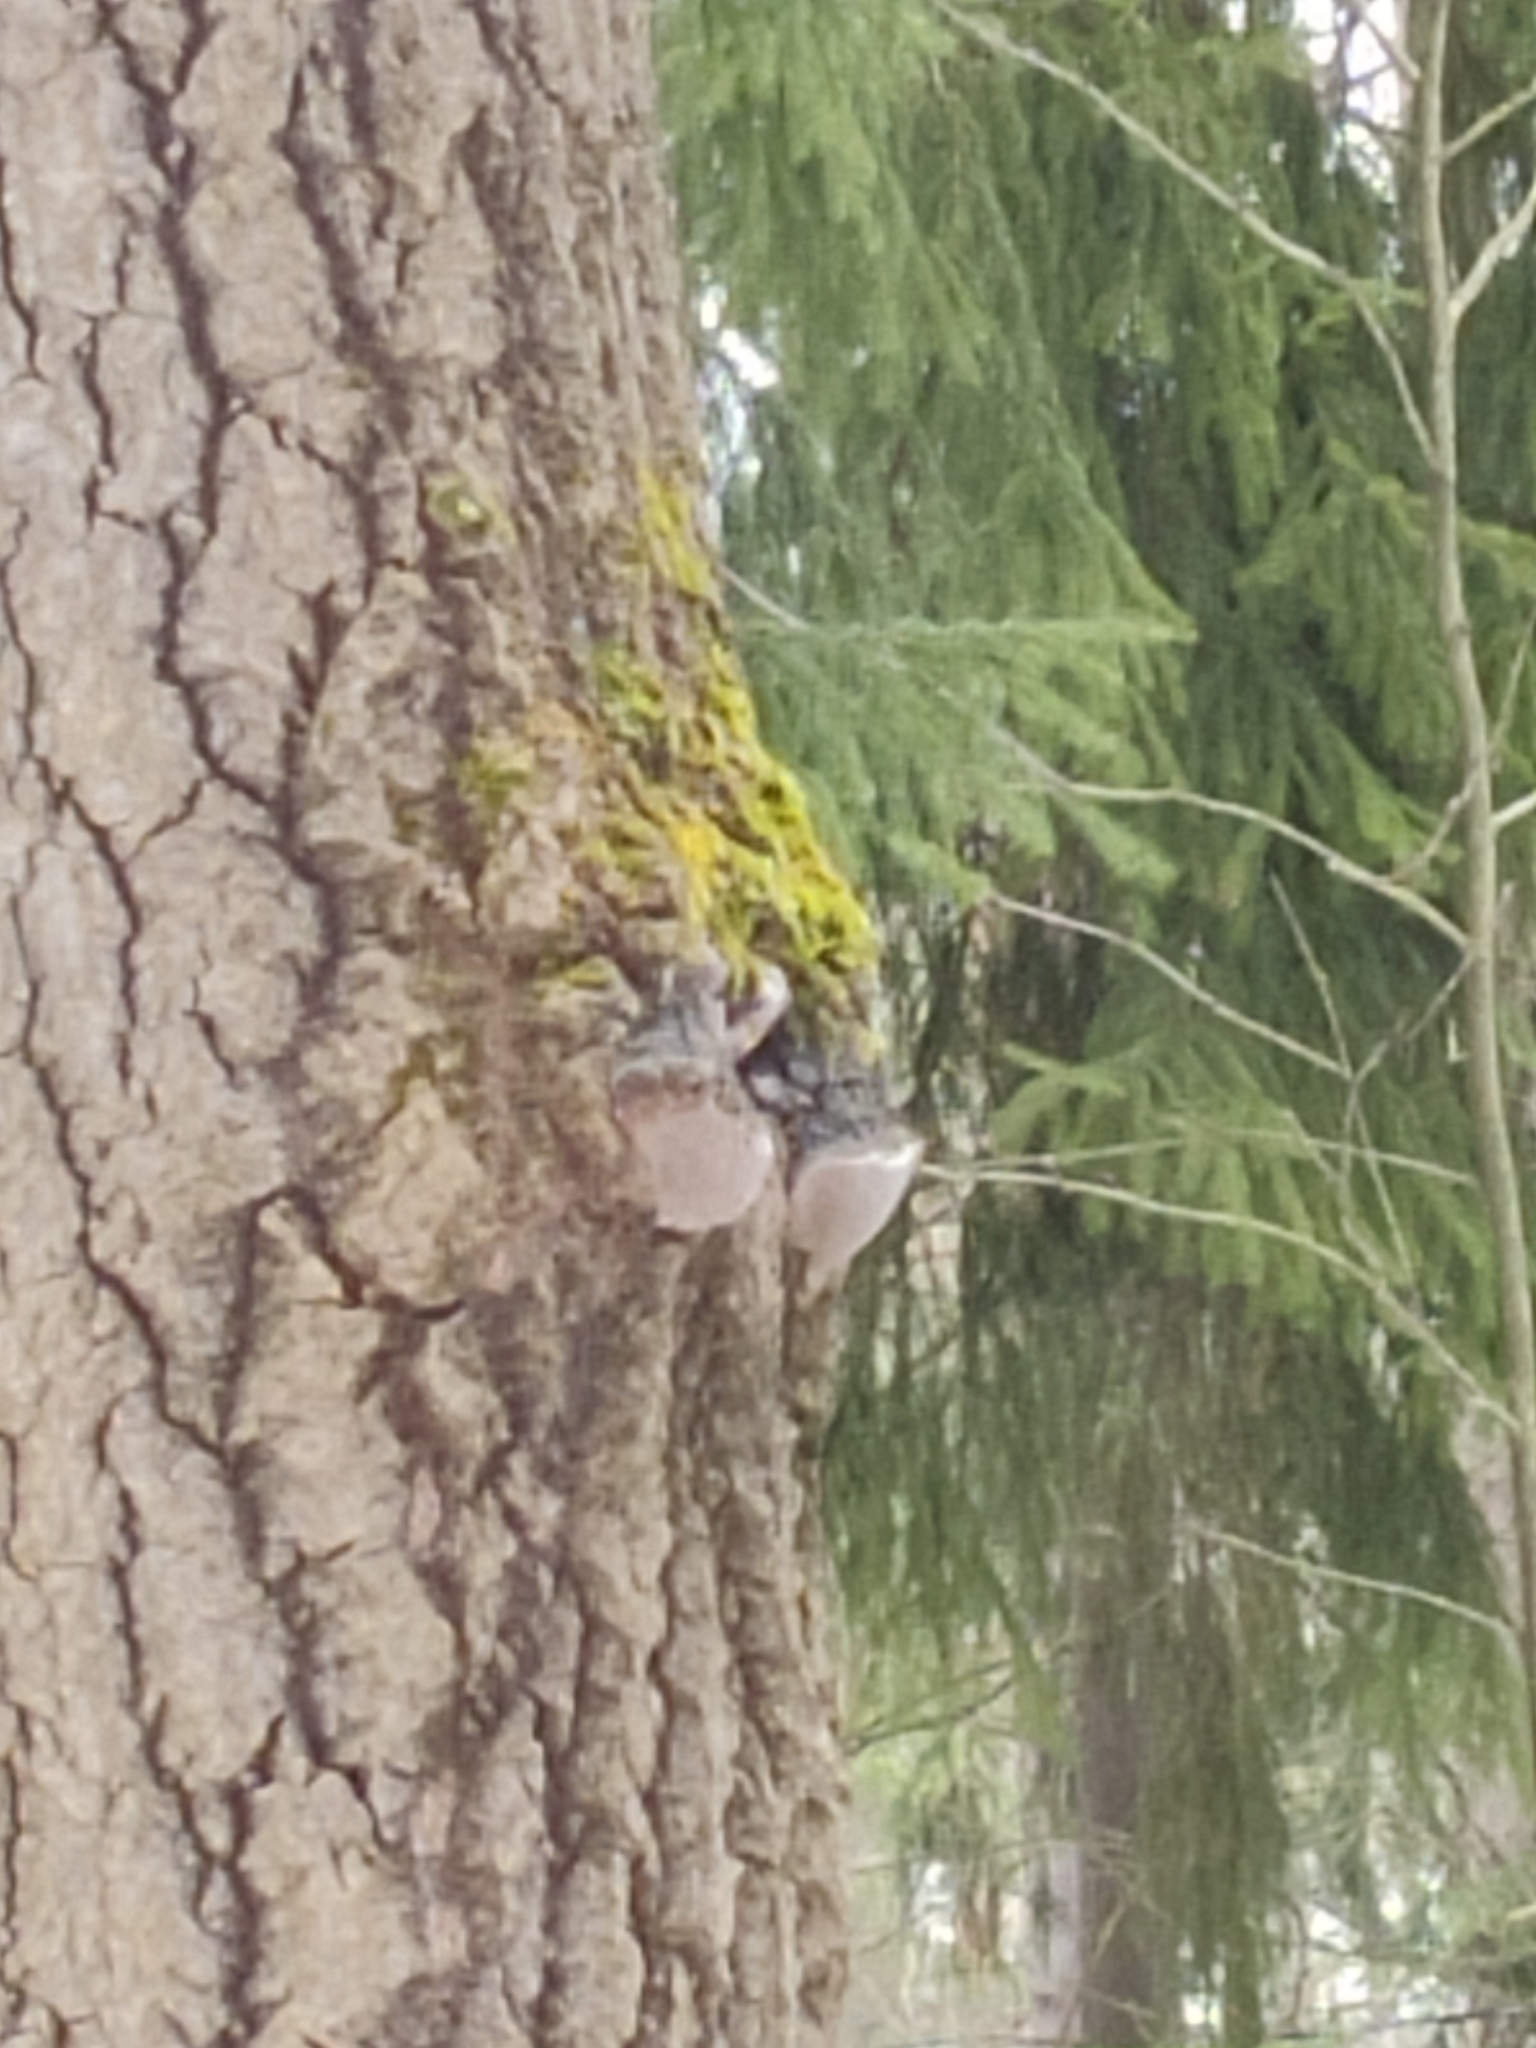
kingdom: Fungi
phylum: Basidiomycota
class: Agaricomycetes
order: Hymenochaetales
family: Hymenochaetaceae
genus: Phellinus
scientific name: Phellinus tremulae
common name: Aspen bracket
